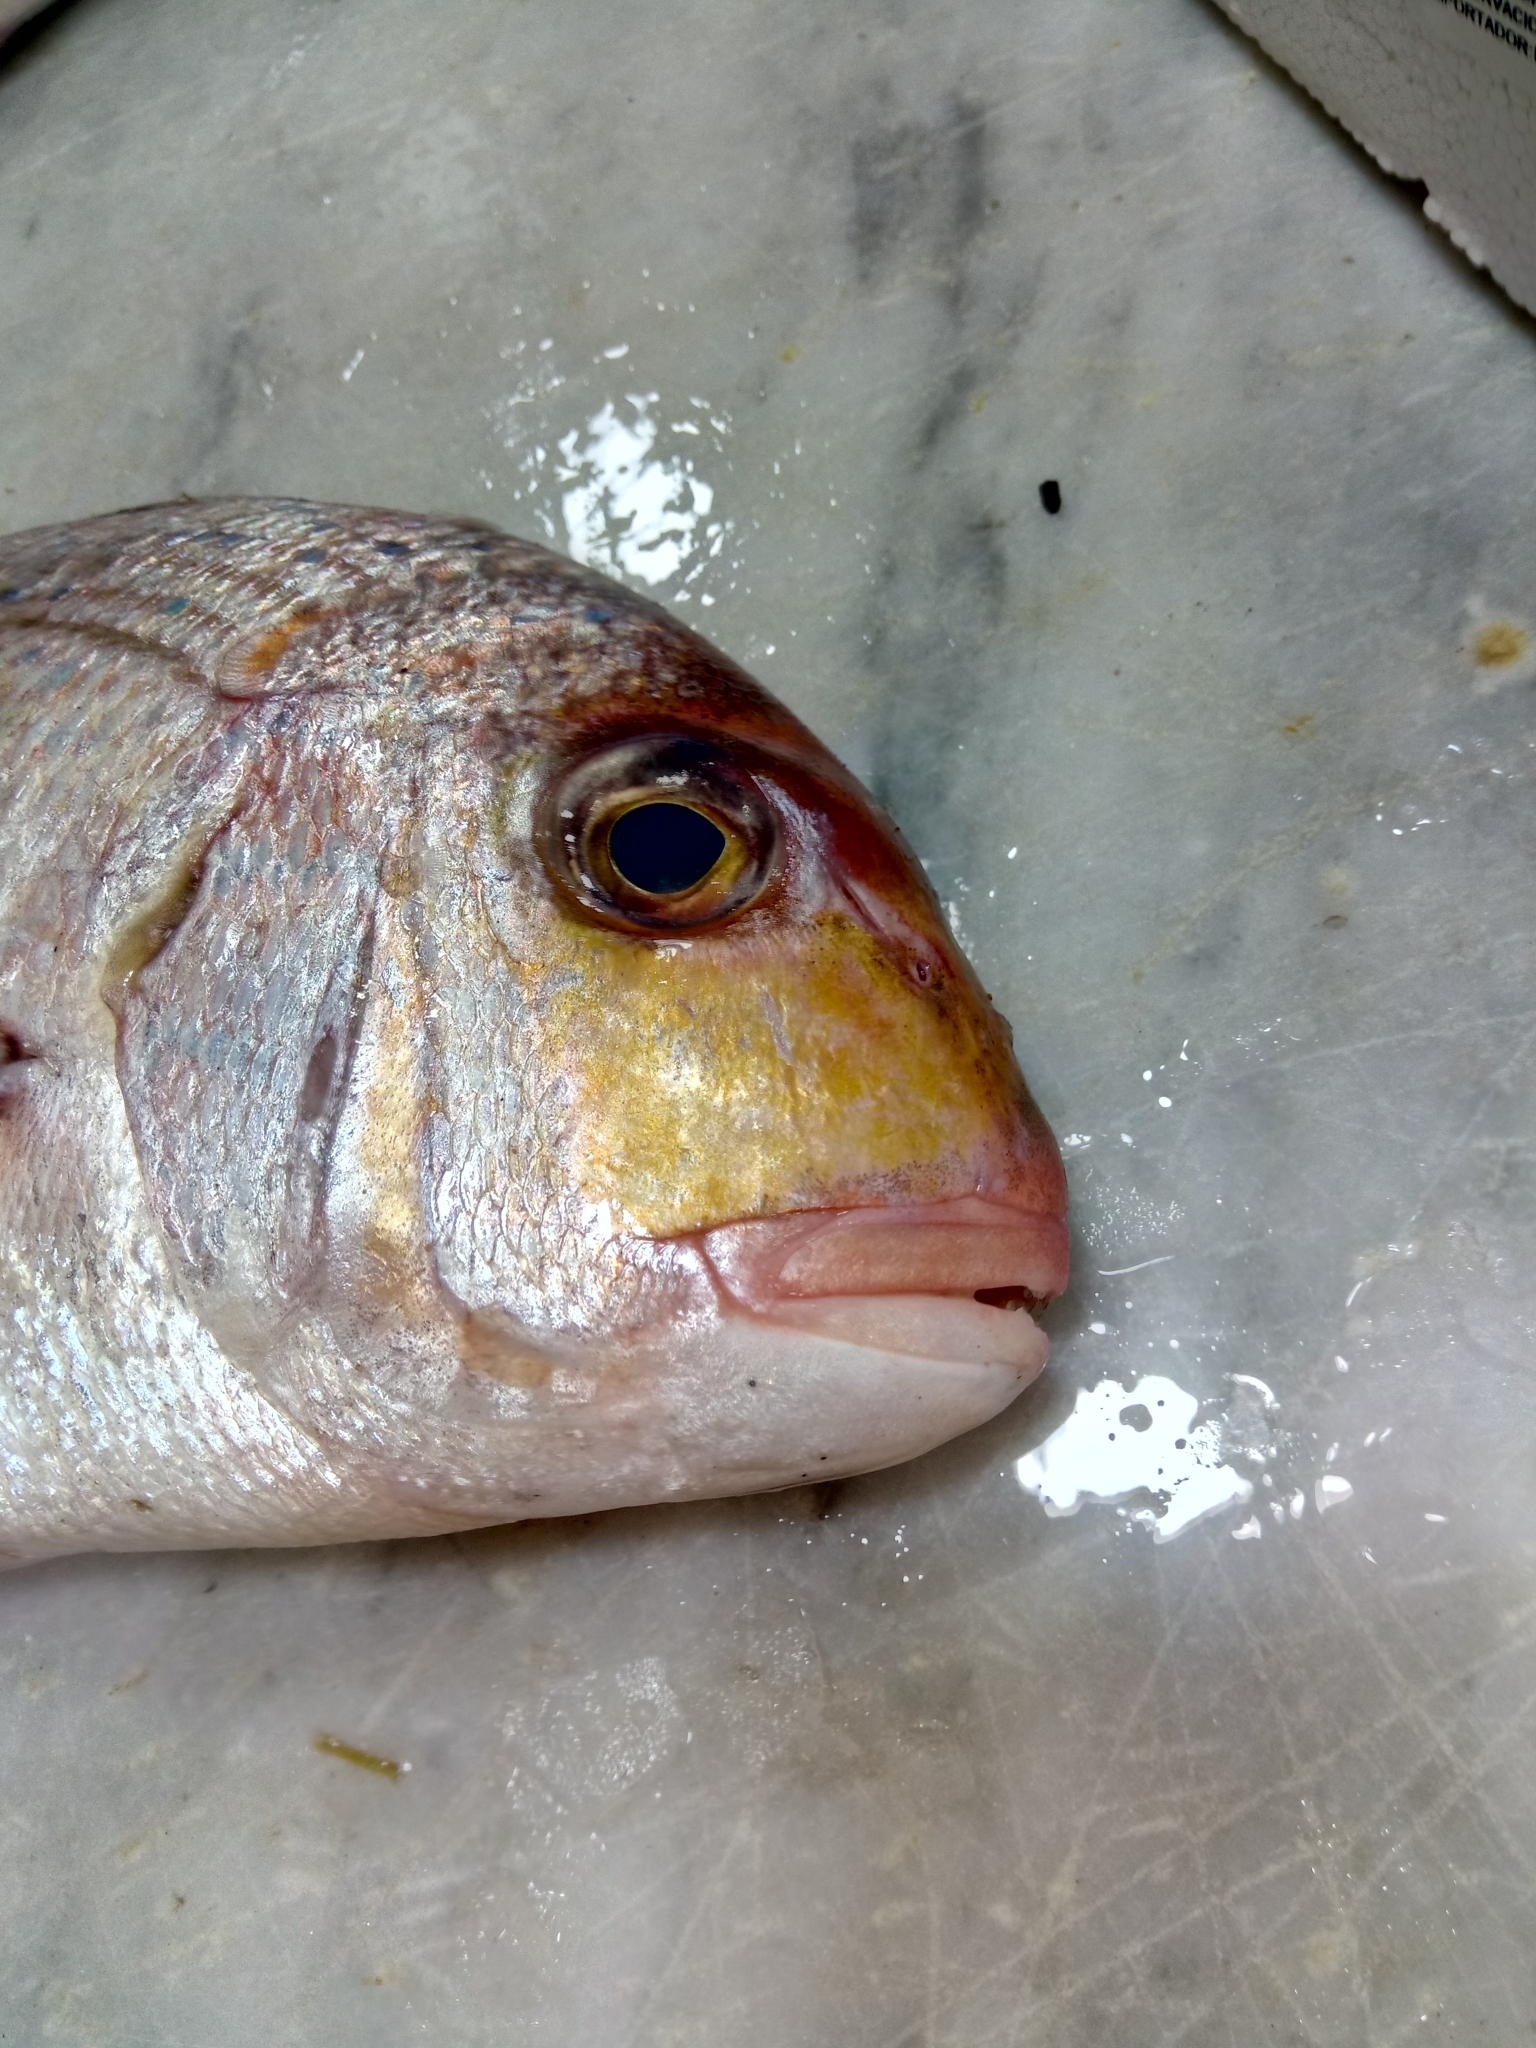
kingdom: Animalia
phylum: Chordata
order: Perciformes
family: Sparidae
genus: Pagrus
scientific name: Pagrus caeruleostictus
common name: Bluespotted seabream
